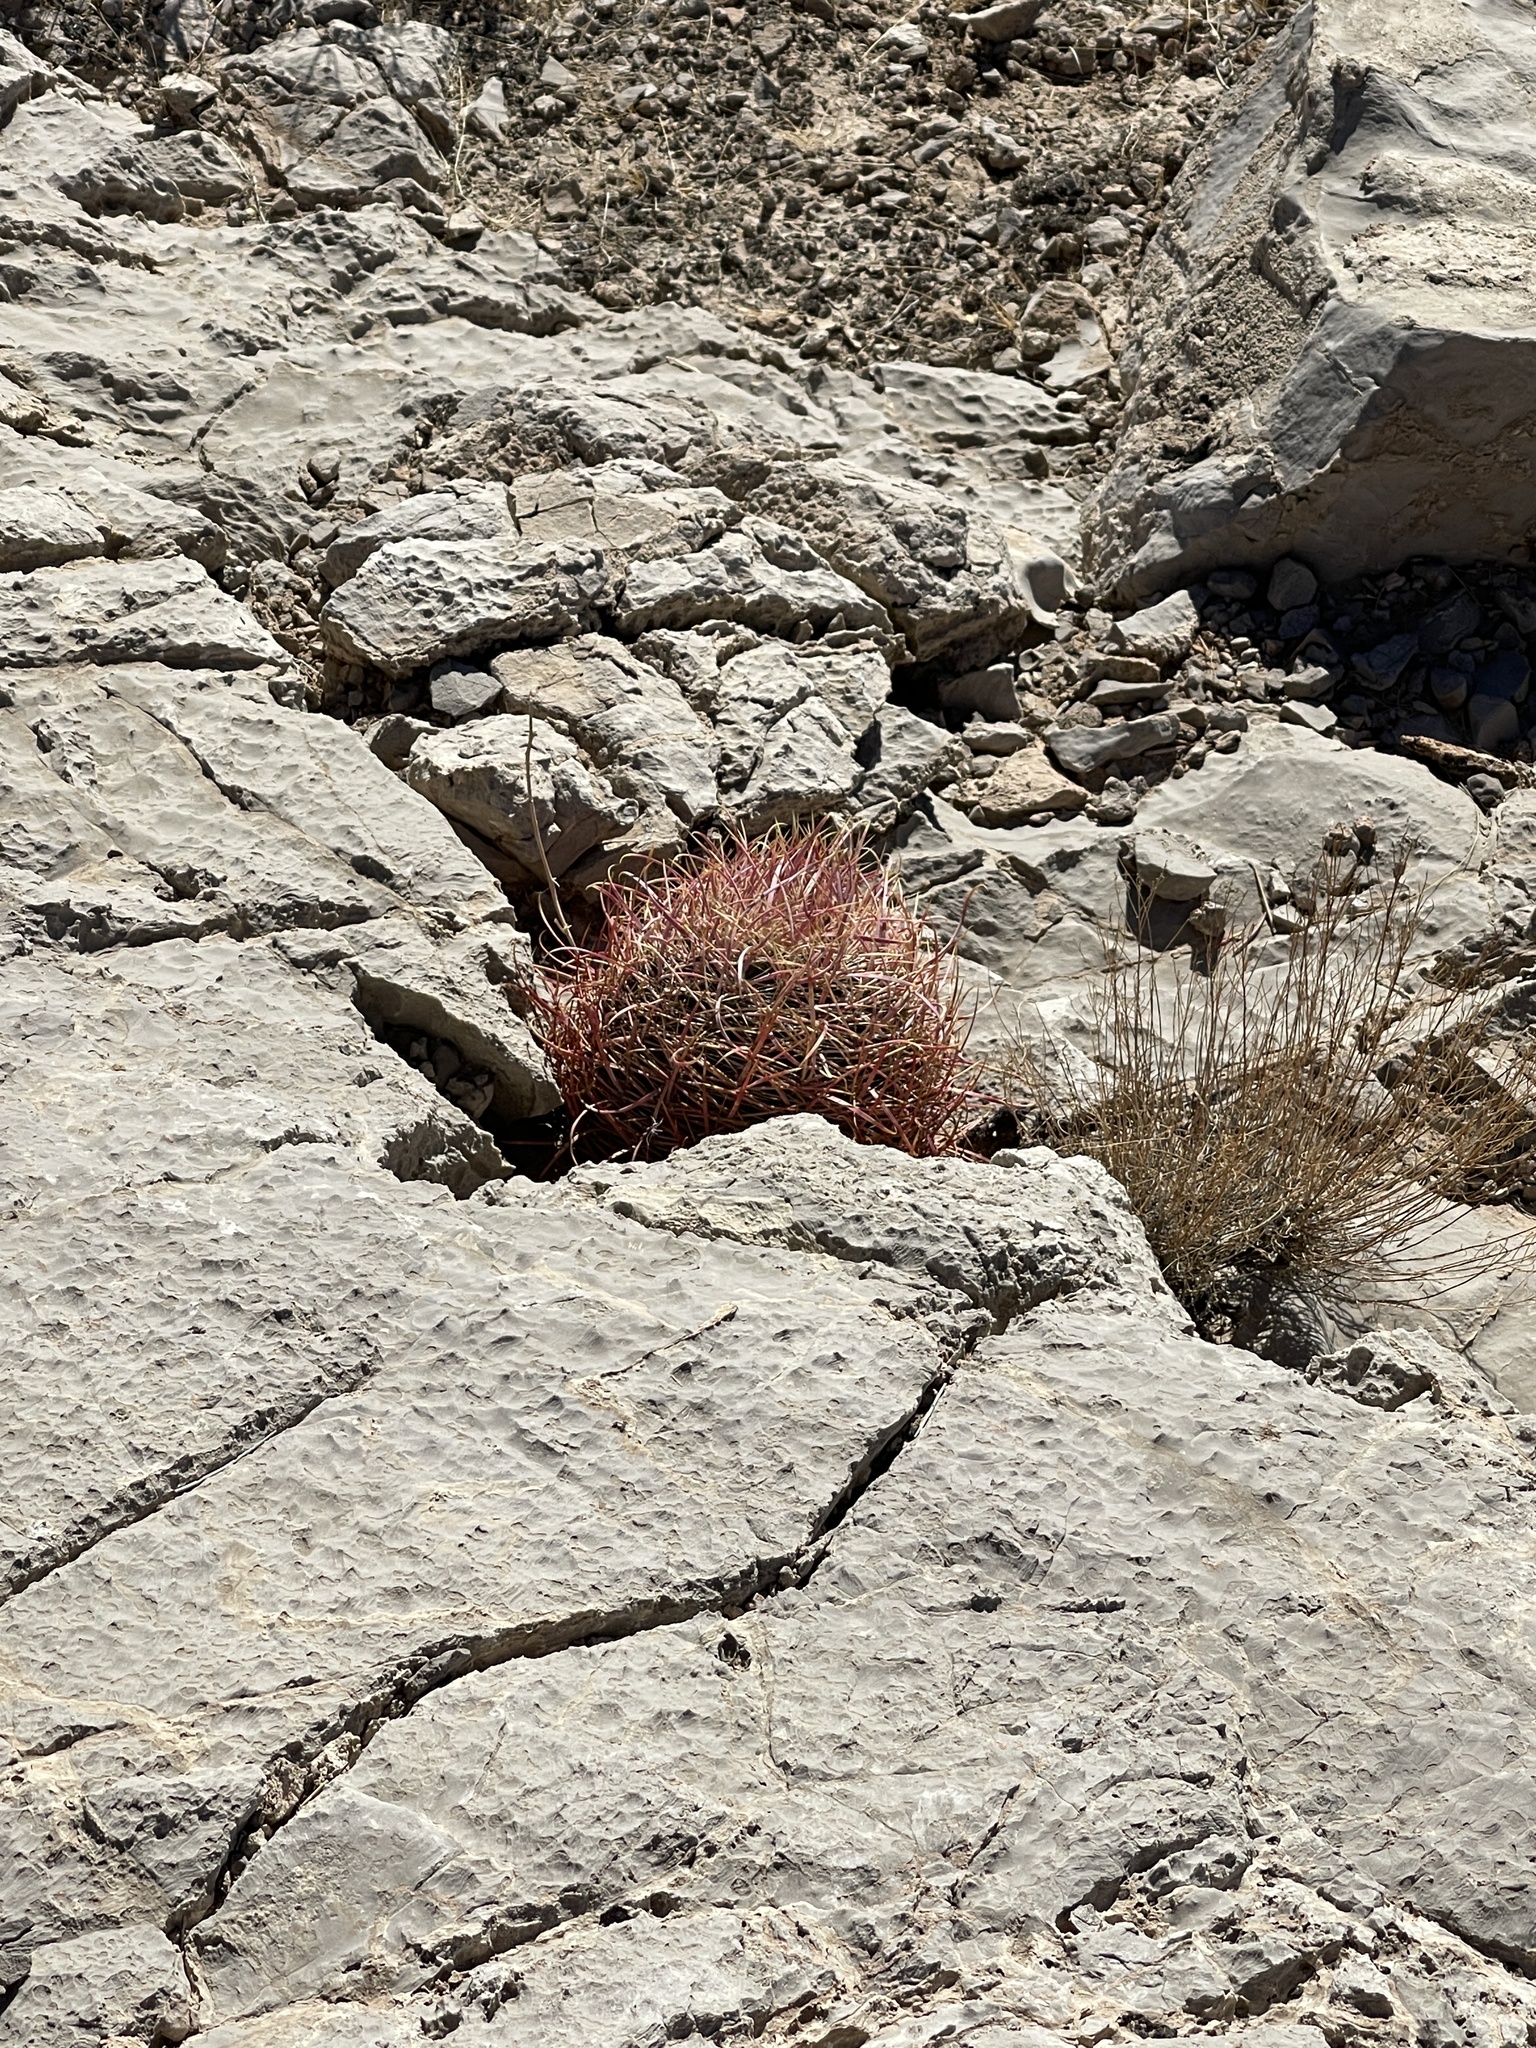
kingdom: Plantae
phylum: Tracheophyta
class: Magnoliopsida
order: Caryophyllales
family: Cactaceae
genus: Echinocactus
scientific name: Echinocactus polycephalus
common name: Cottontop cactus
